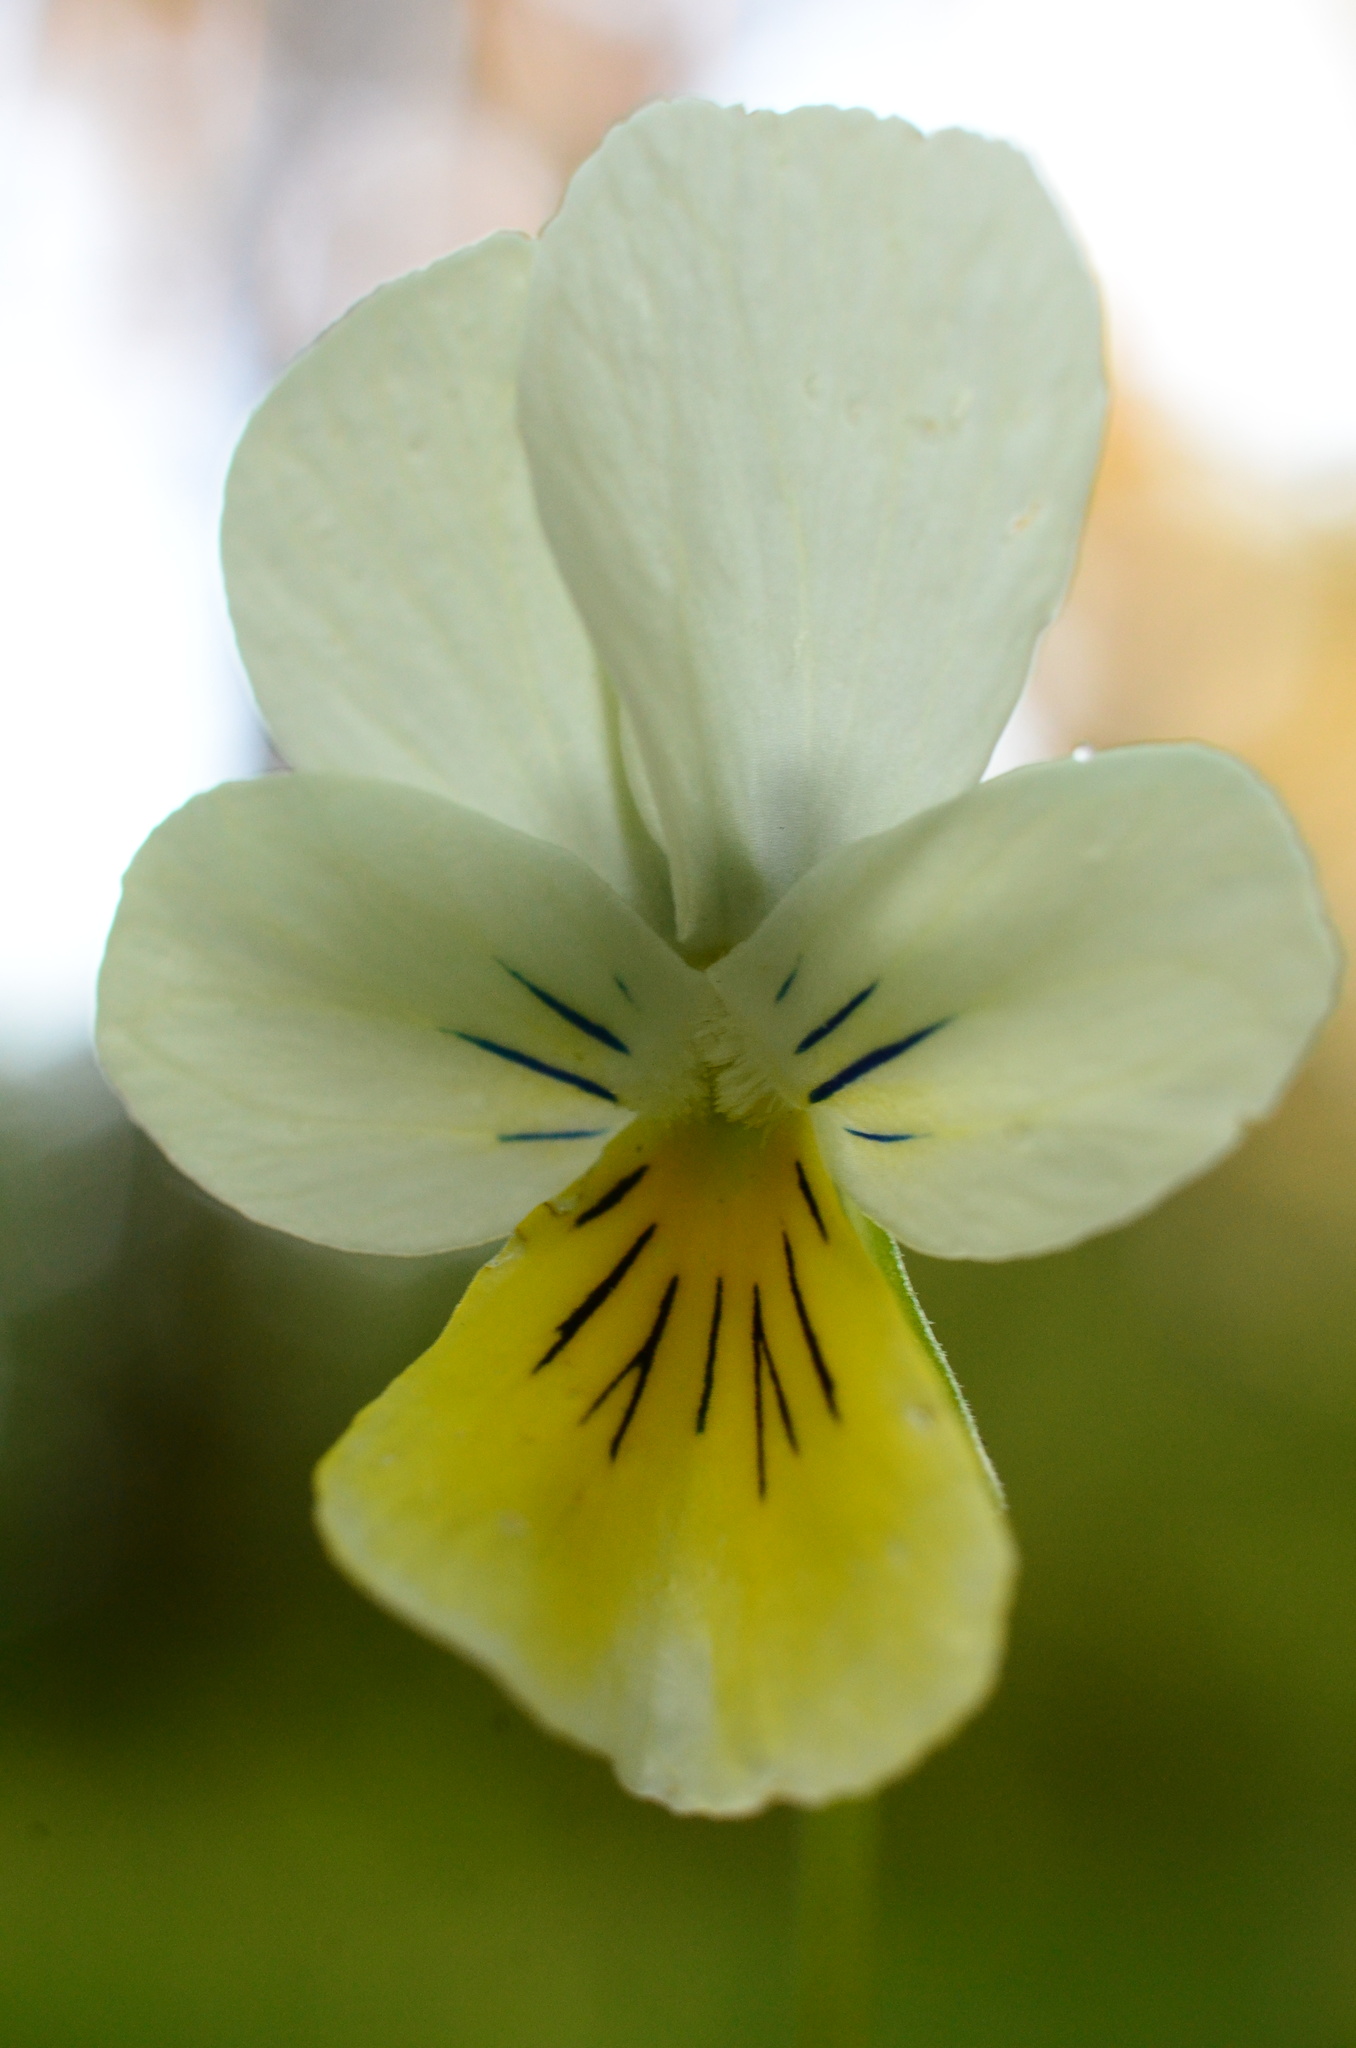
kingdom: Plantae
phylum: Tracheophyta
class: Magnoliopsida
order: Malpighiales
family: Violaceae
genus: Viola
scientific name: Viola tricolor
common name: Pansy
